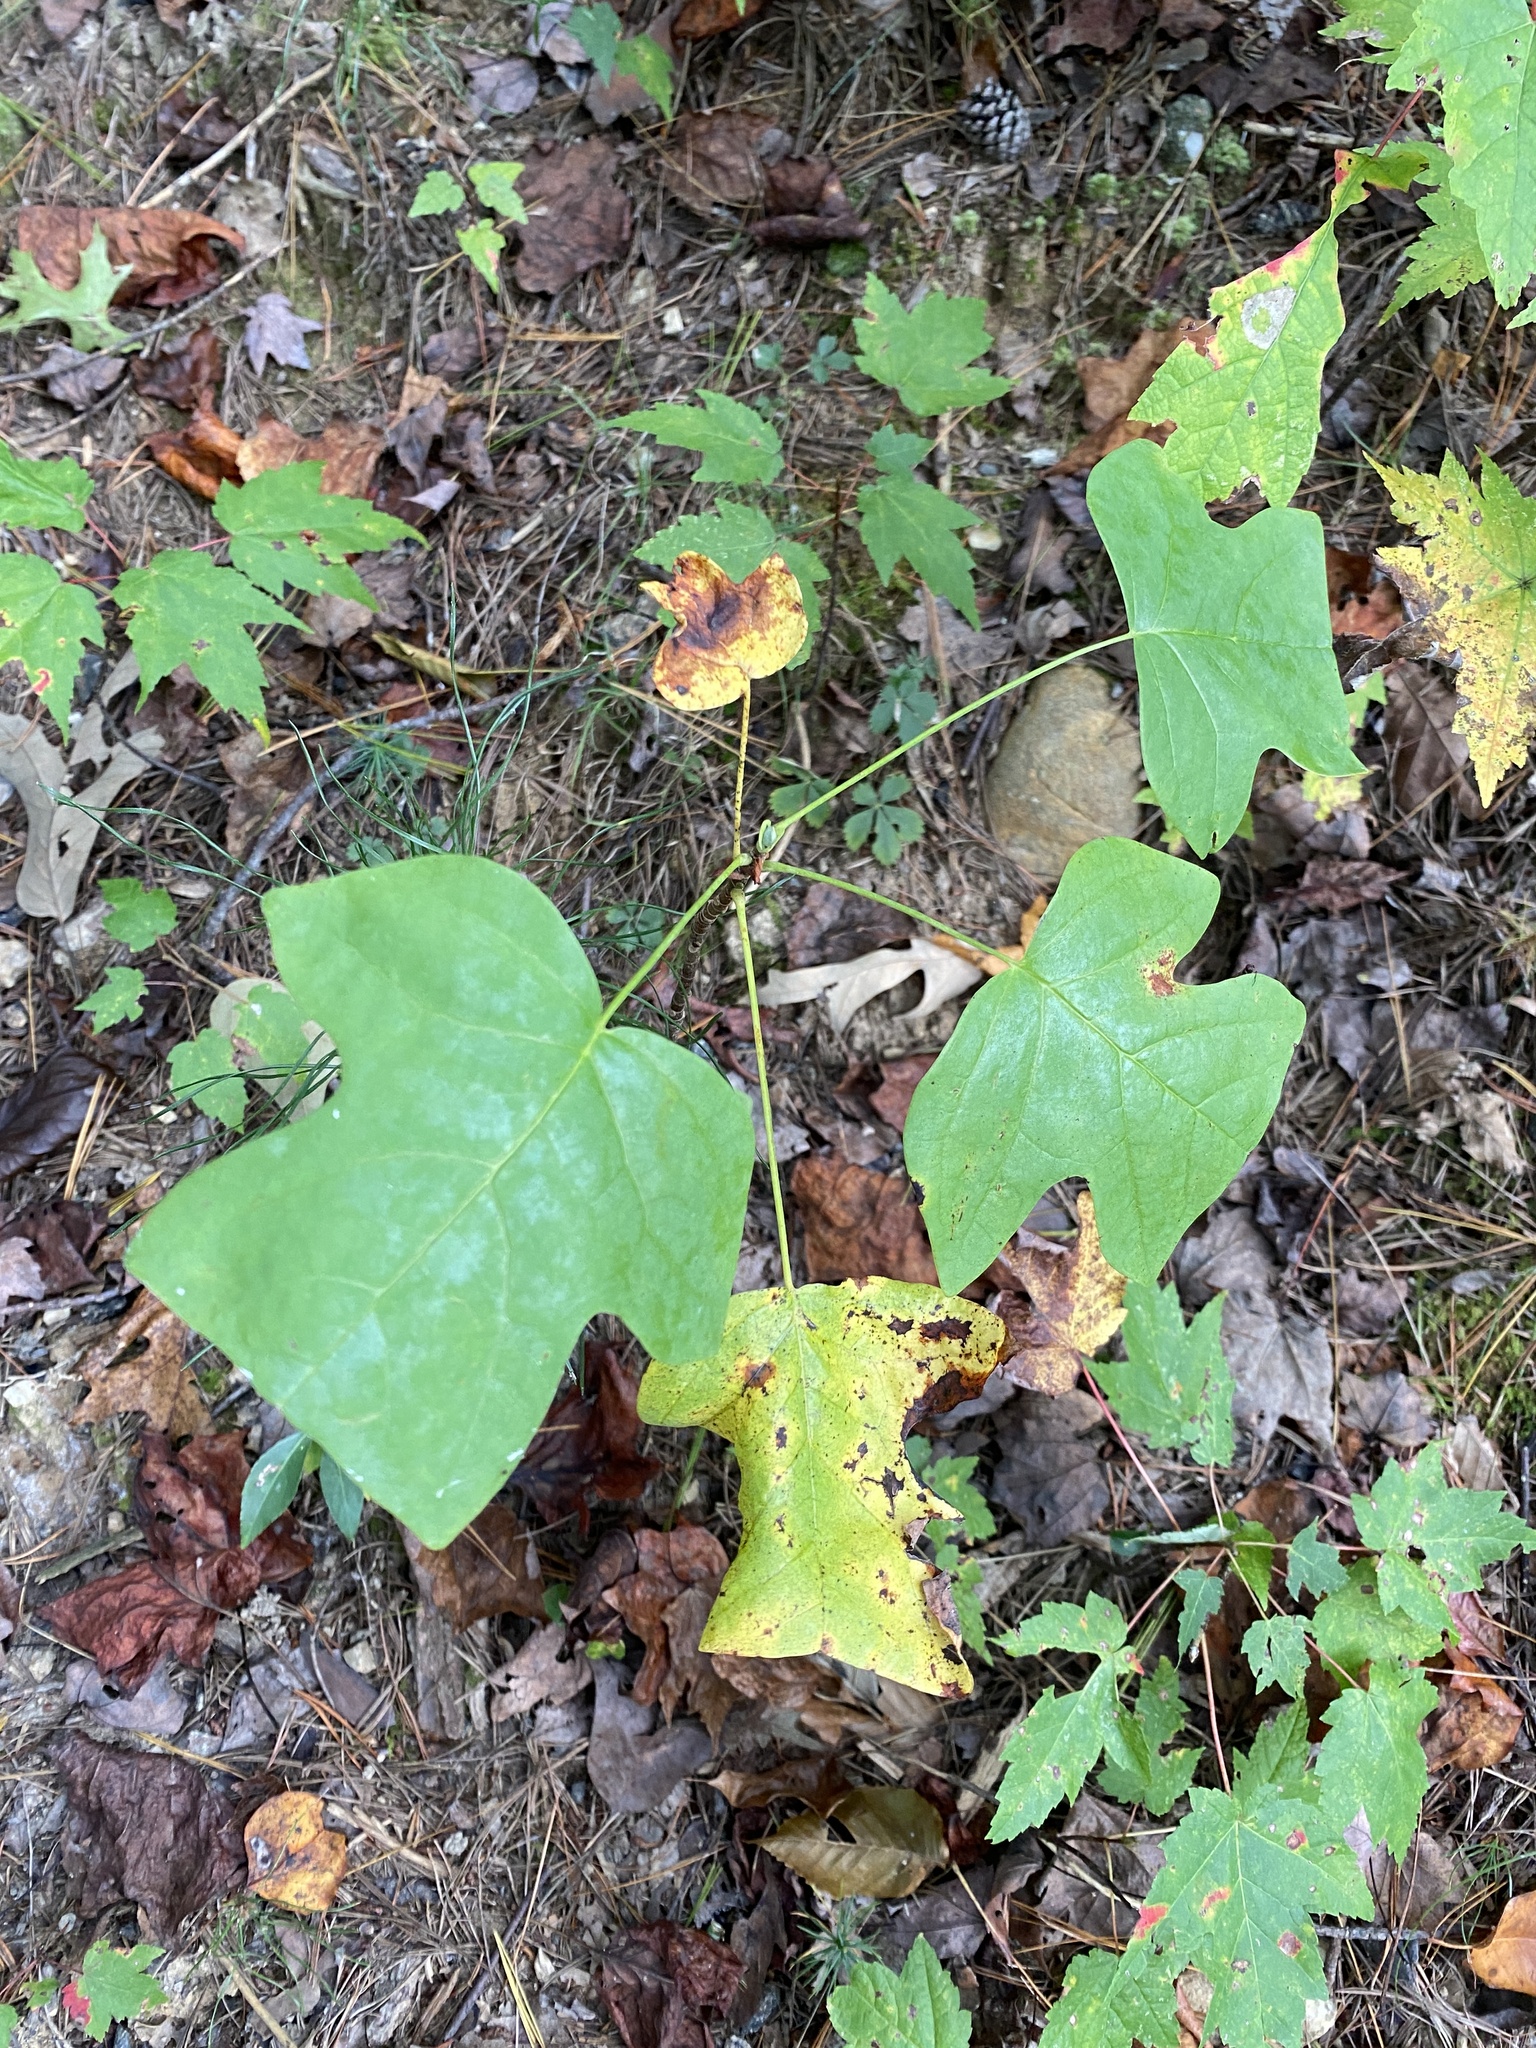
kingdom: Plantae
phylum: Tracheophyta
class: Magnoliopsida
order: Magnoliales
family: Magnoliaceae
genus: Liriodendron
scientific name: Liriodendron tulipifera
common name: Tulip tree
